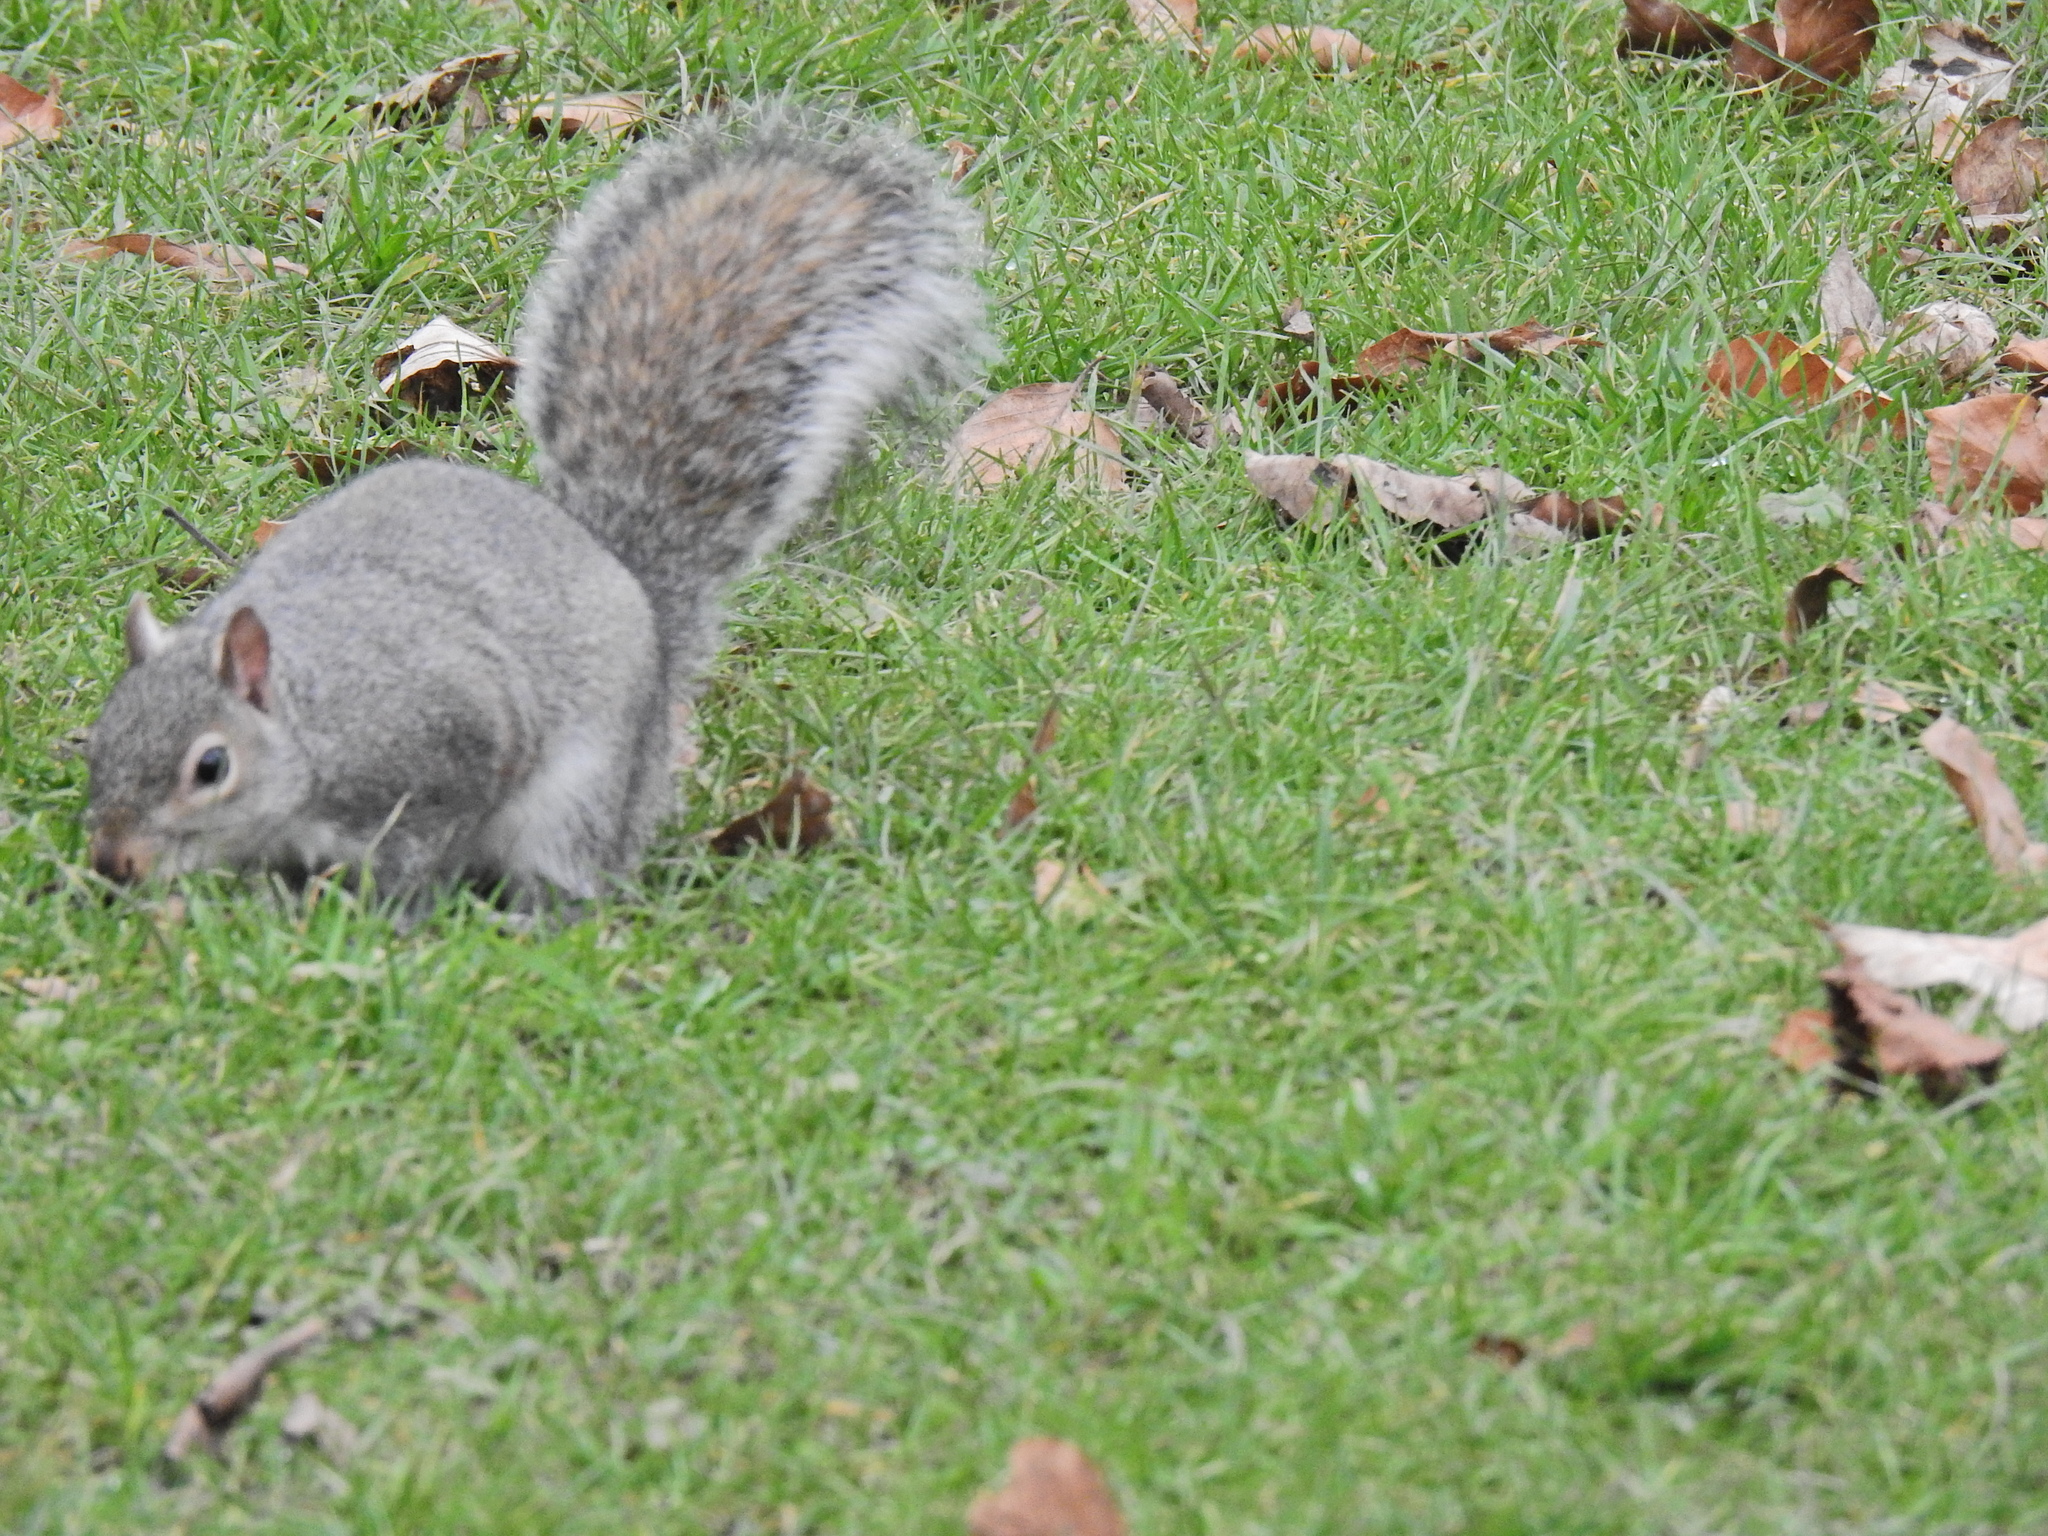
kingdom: Animalia
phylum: Chordata
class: Mammalia
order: Rodentia
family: Sciuridae
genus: Sciurus
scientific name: Sciurus carolinensis
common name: Eastern gray squirrel
